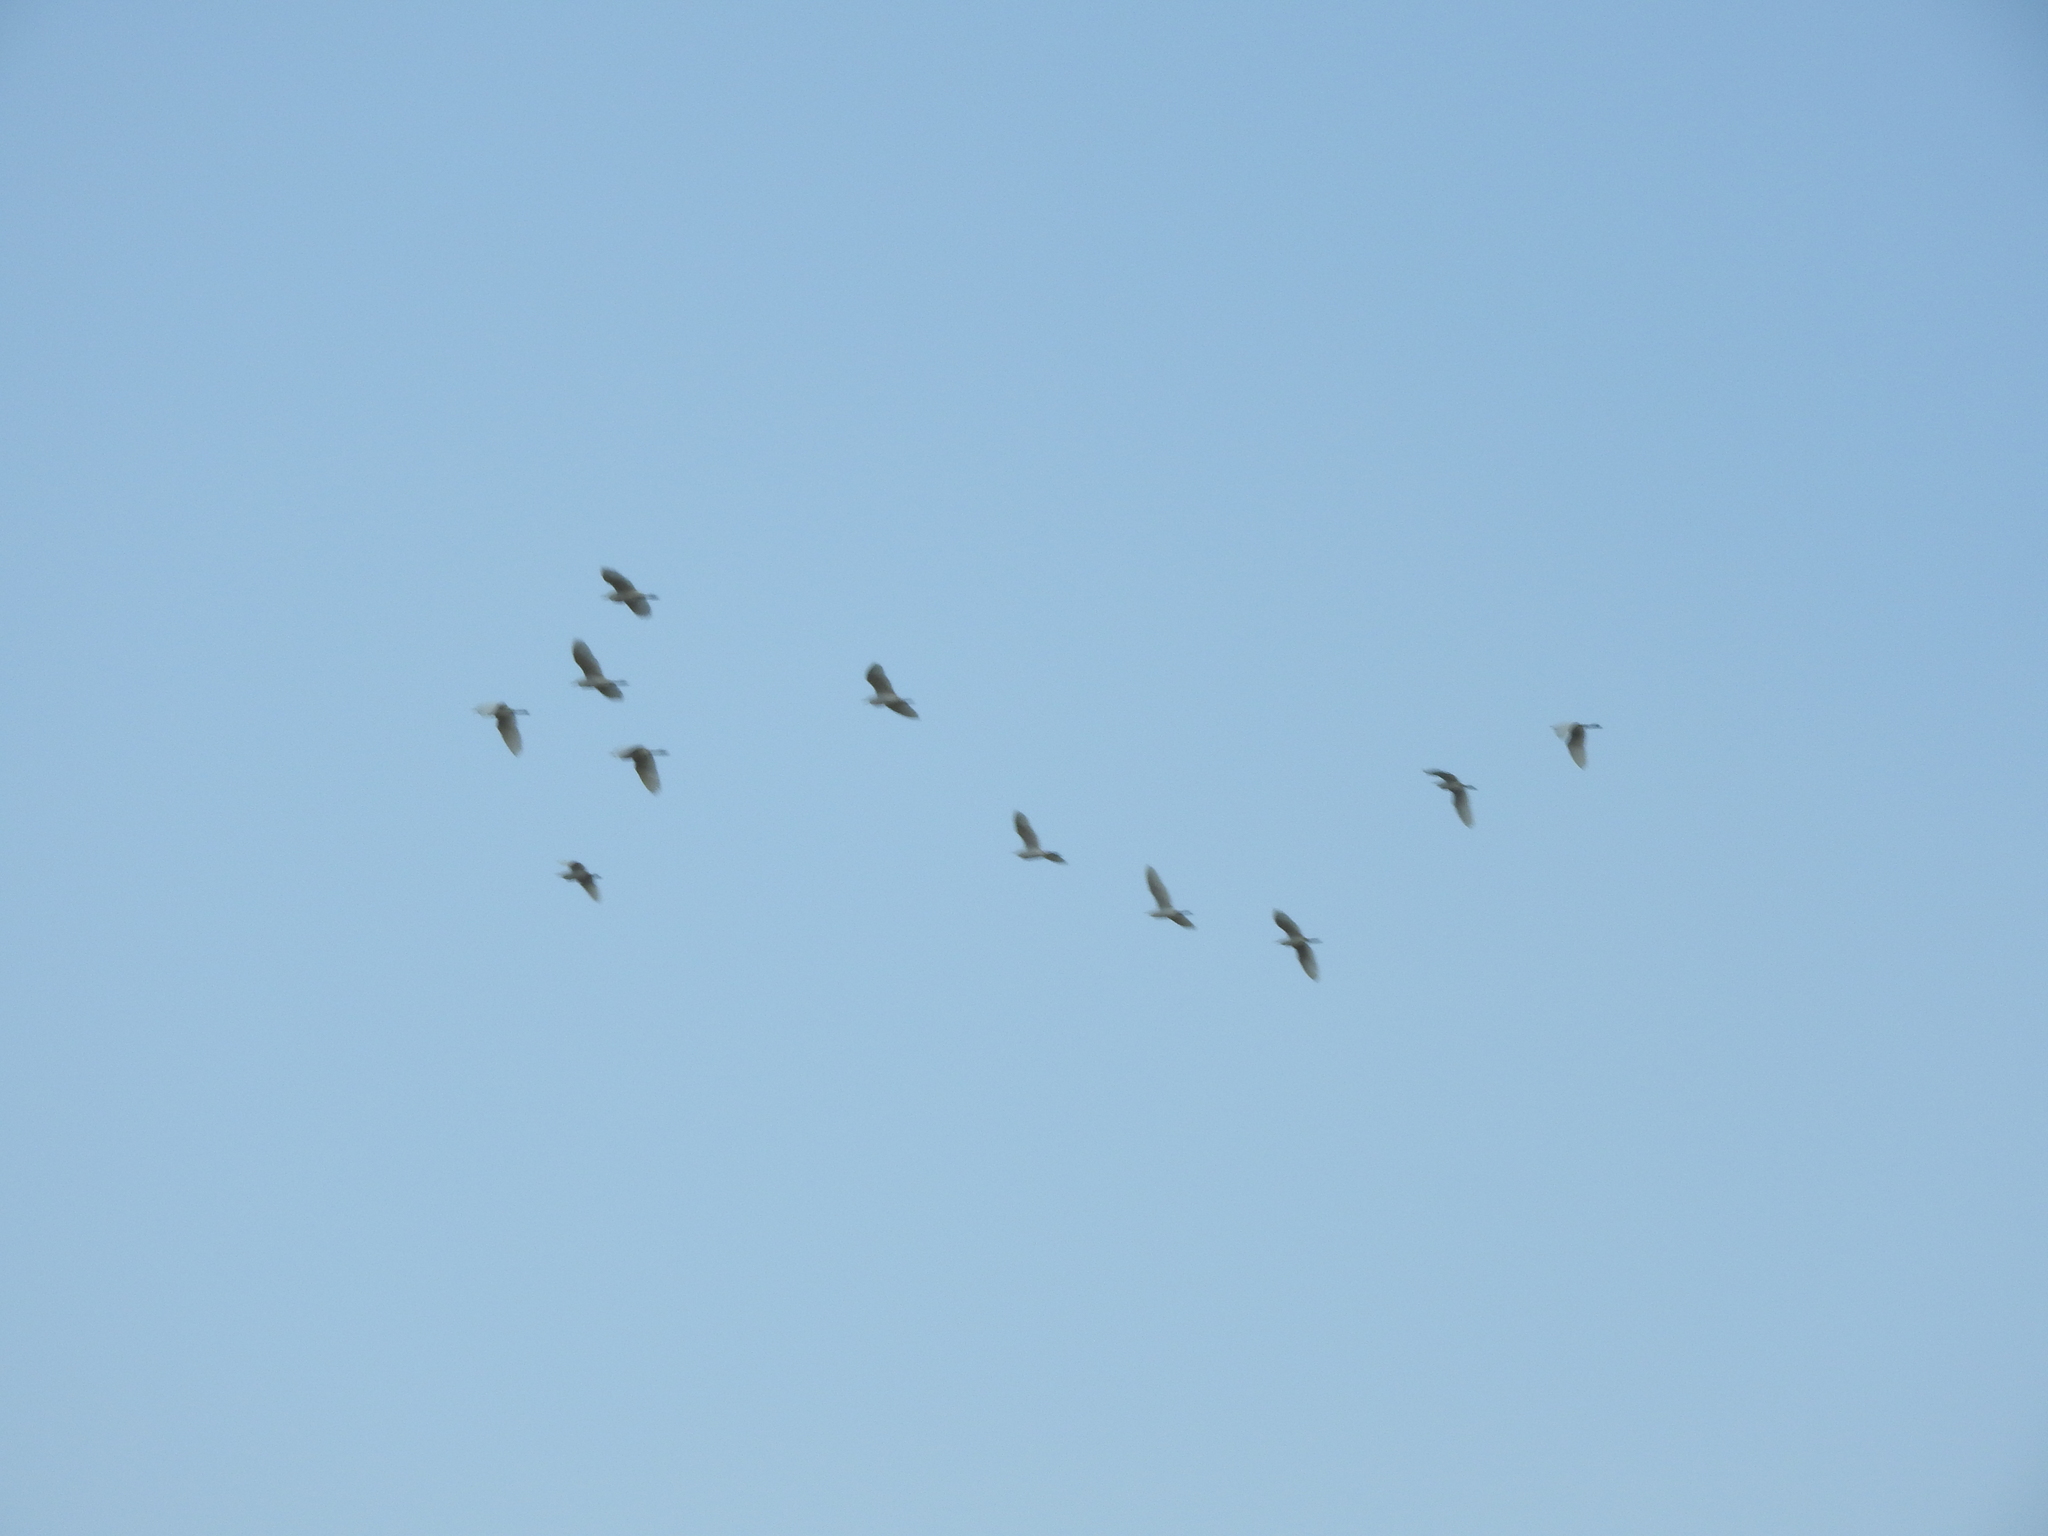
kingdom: Animalia
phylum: Chordata
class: Aves
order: Pelecaniformes
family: Ardeidae
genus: Bubulcus
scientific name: Bubulcus ibis
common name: Cattle egret
